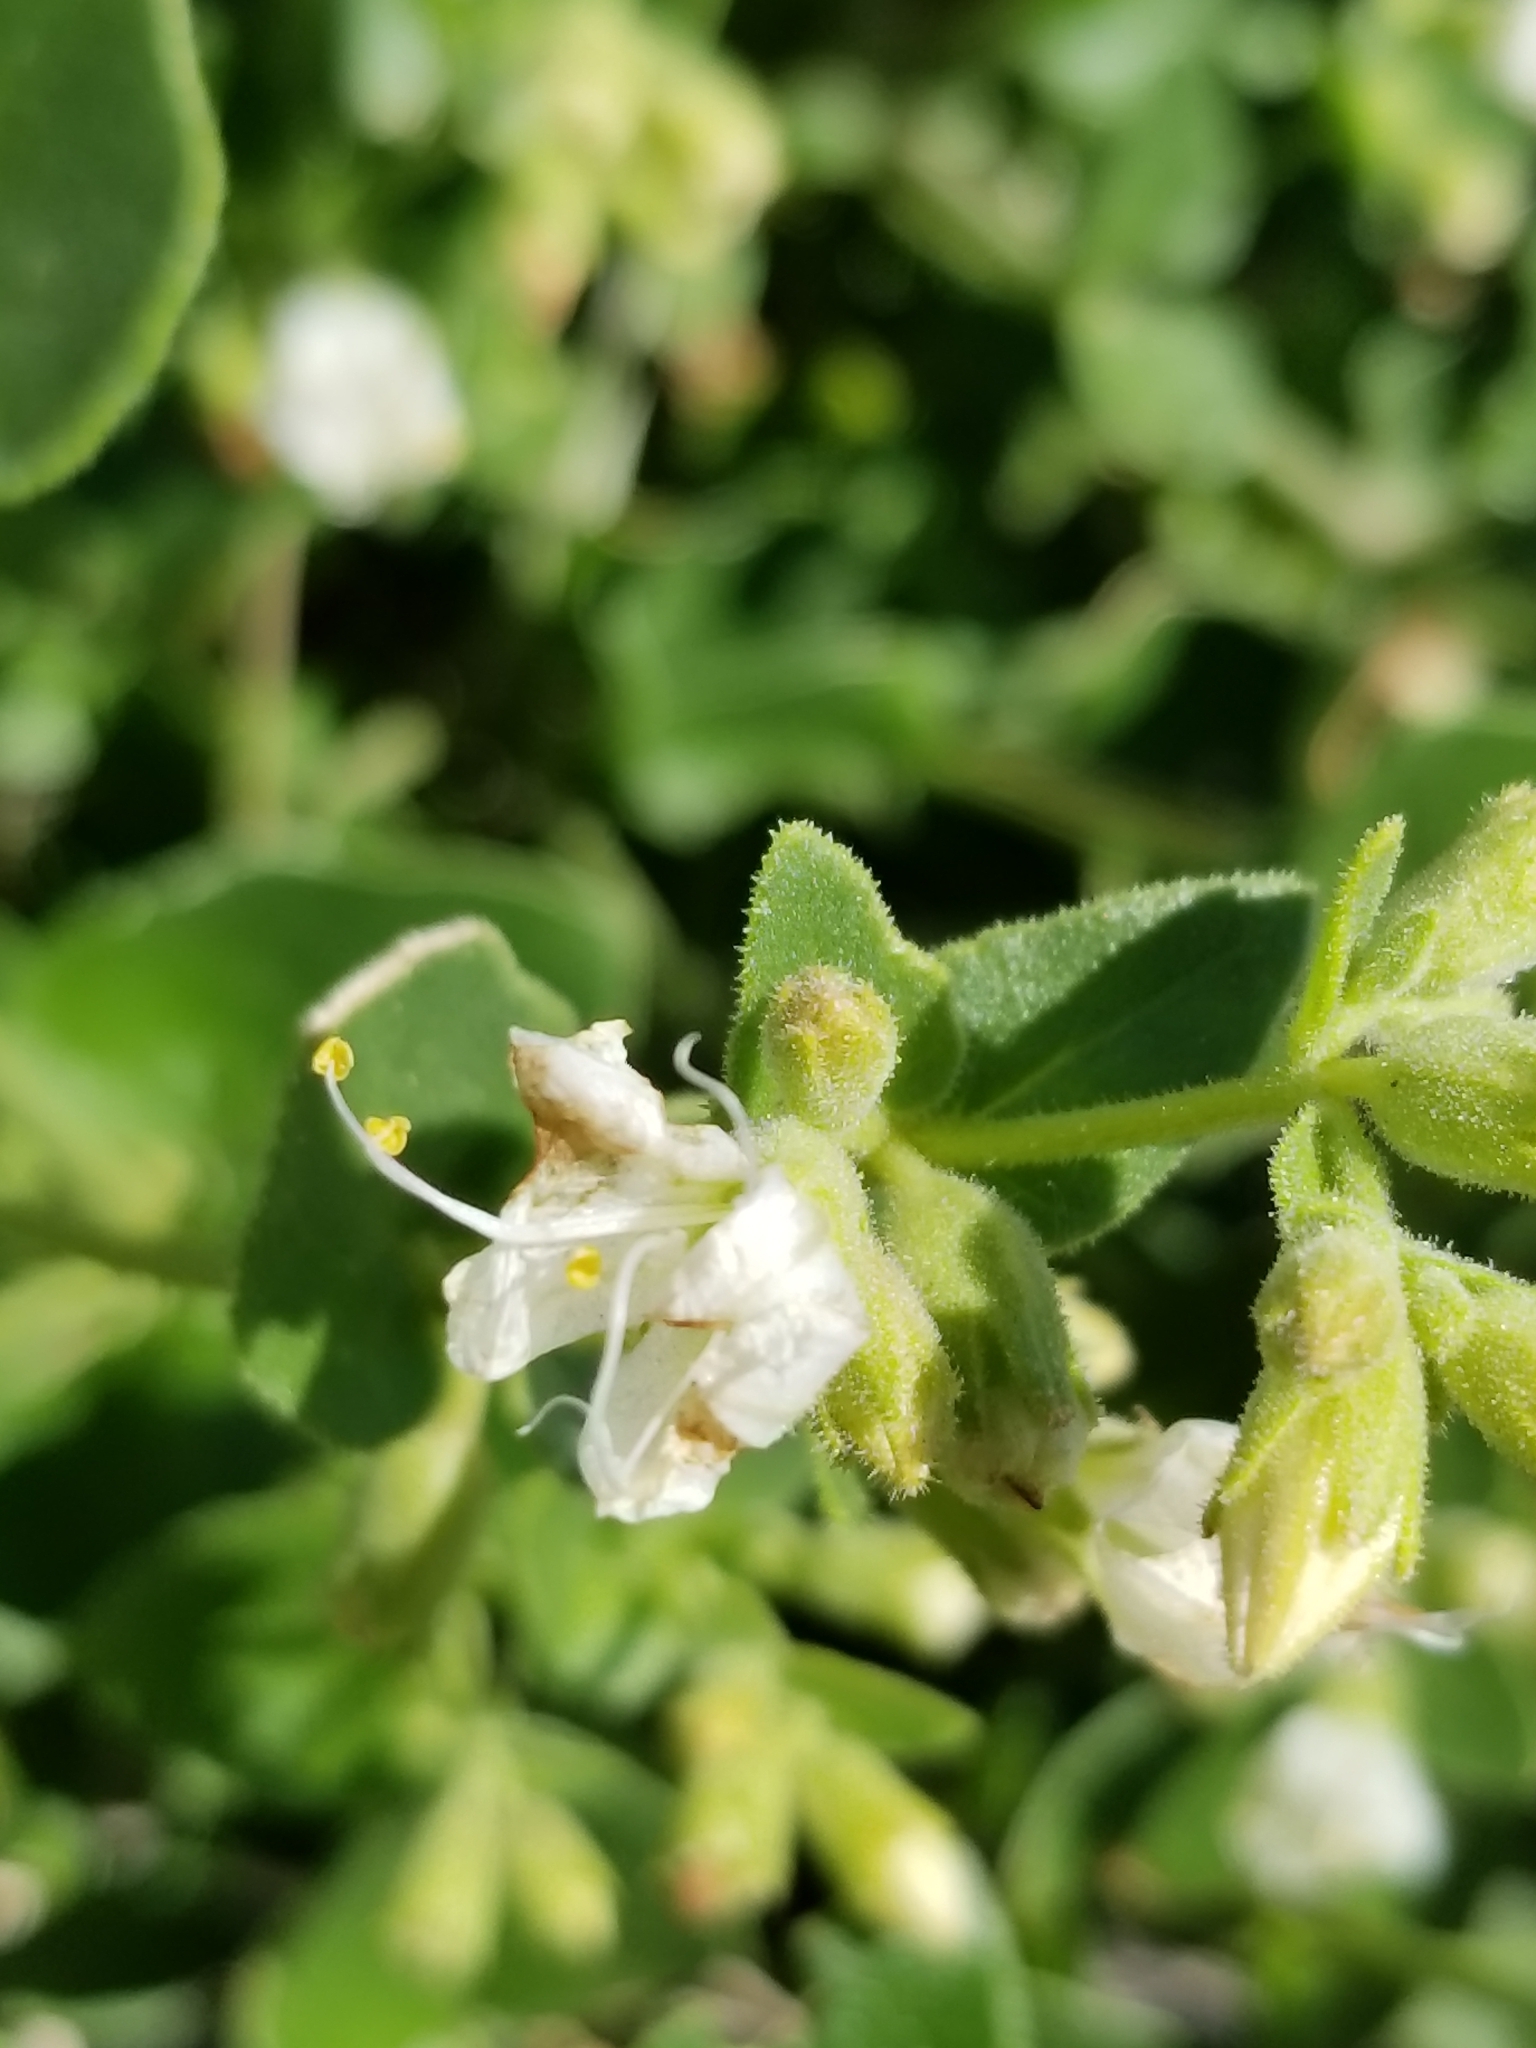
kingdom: Plantae
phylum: Tracheophyta
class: Magnoliopsida
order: Caryophyllales
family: Nyctaginaceae
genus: Mirabilis
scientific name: Mirabilis laevis
